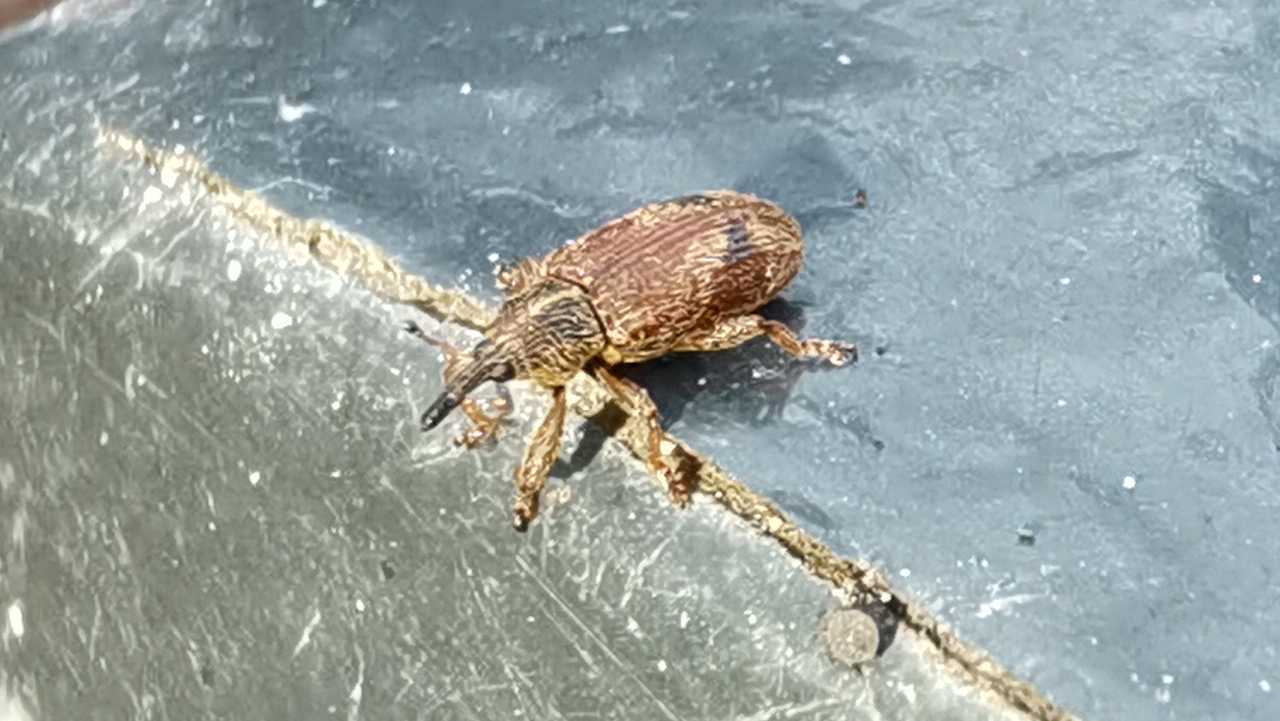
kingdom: Animalia
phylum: Arthropoda
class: Insecta
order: Coleoptera
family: Curculionidae
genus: Bradybatus
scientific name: Bradybatus kellneri
